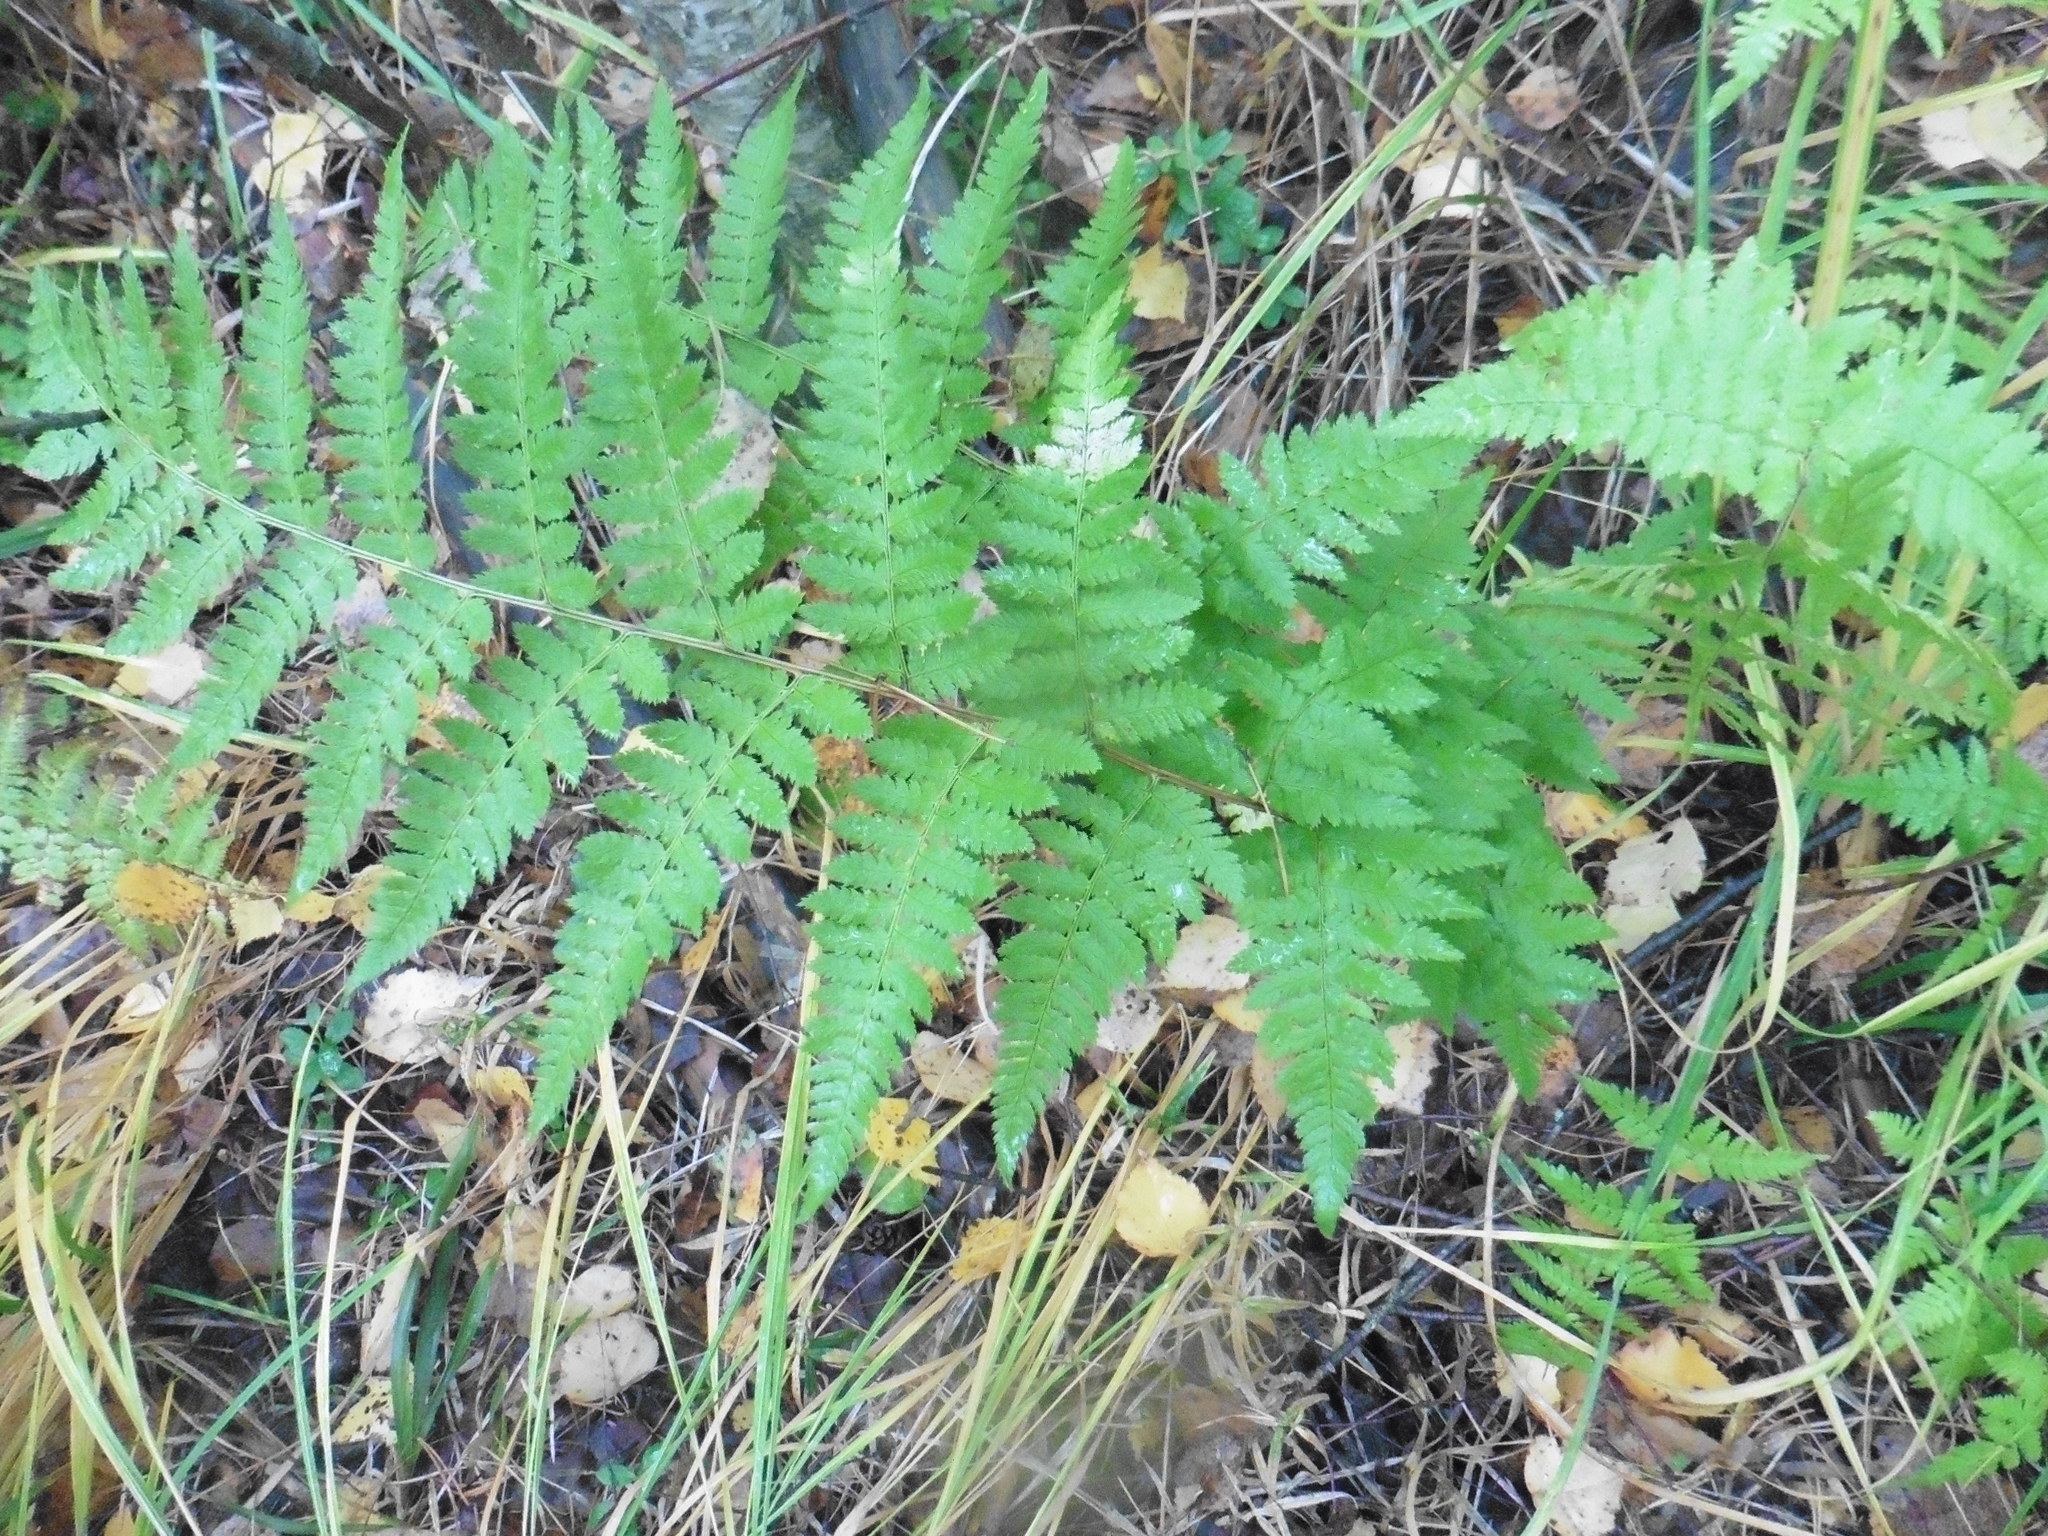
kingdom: Plantae
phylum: Tracheophyta
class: Polypodiopsida
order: Polypodiales
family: Dryopteridaceae
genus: Dryopteris
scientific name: Dryopteris carthusiana
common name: Narrow buckler-fern
